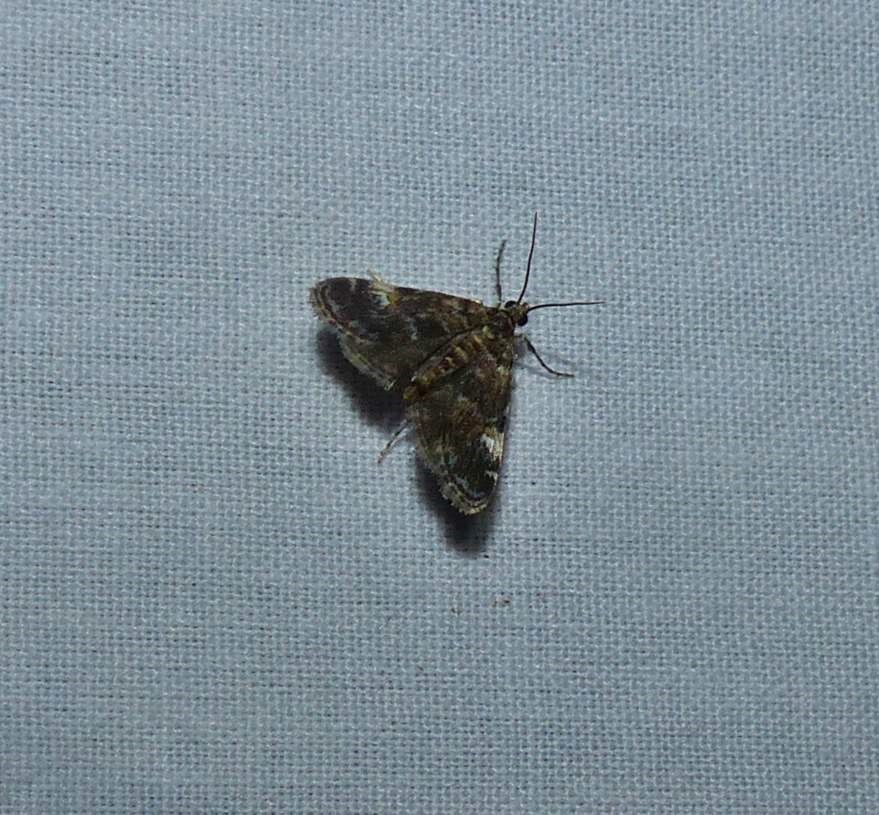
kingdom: Animalia
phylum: Arthropoda
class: Insecta
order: Lepidoptera
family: Crambidae
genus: Elophila
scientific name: Elophila obliteralis
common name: Waterlily leafcutter moth
